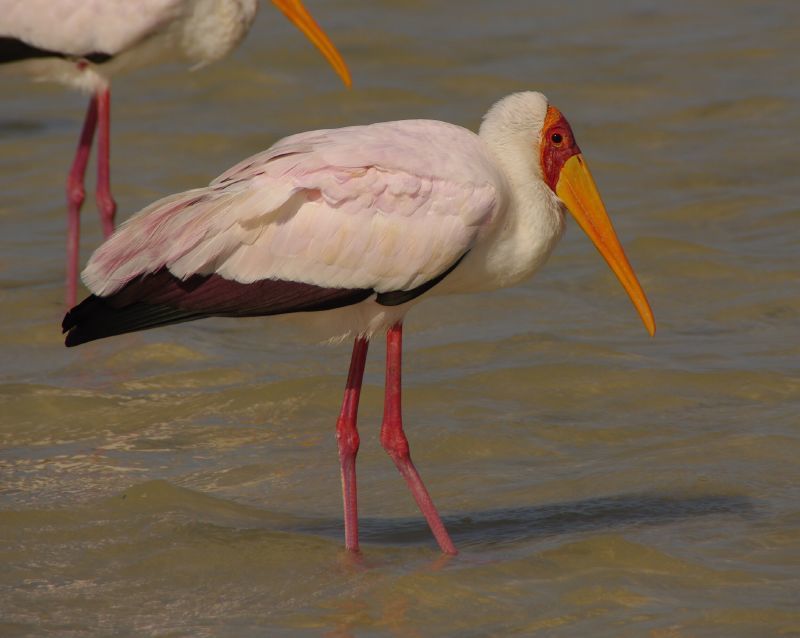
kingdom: Animalia
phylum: Chordata
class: Aves
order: Ciconiiformes
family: Ciconiidae
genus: Mycteria
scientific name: Mycteria ibis
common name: Yellow-billed stork
